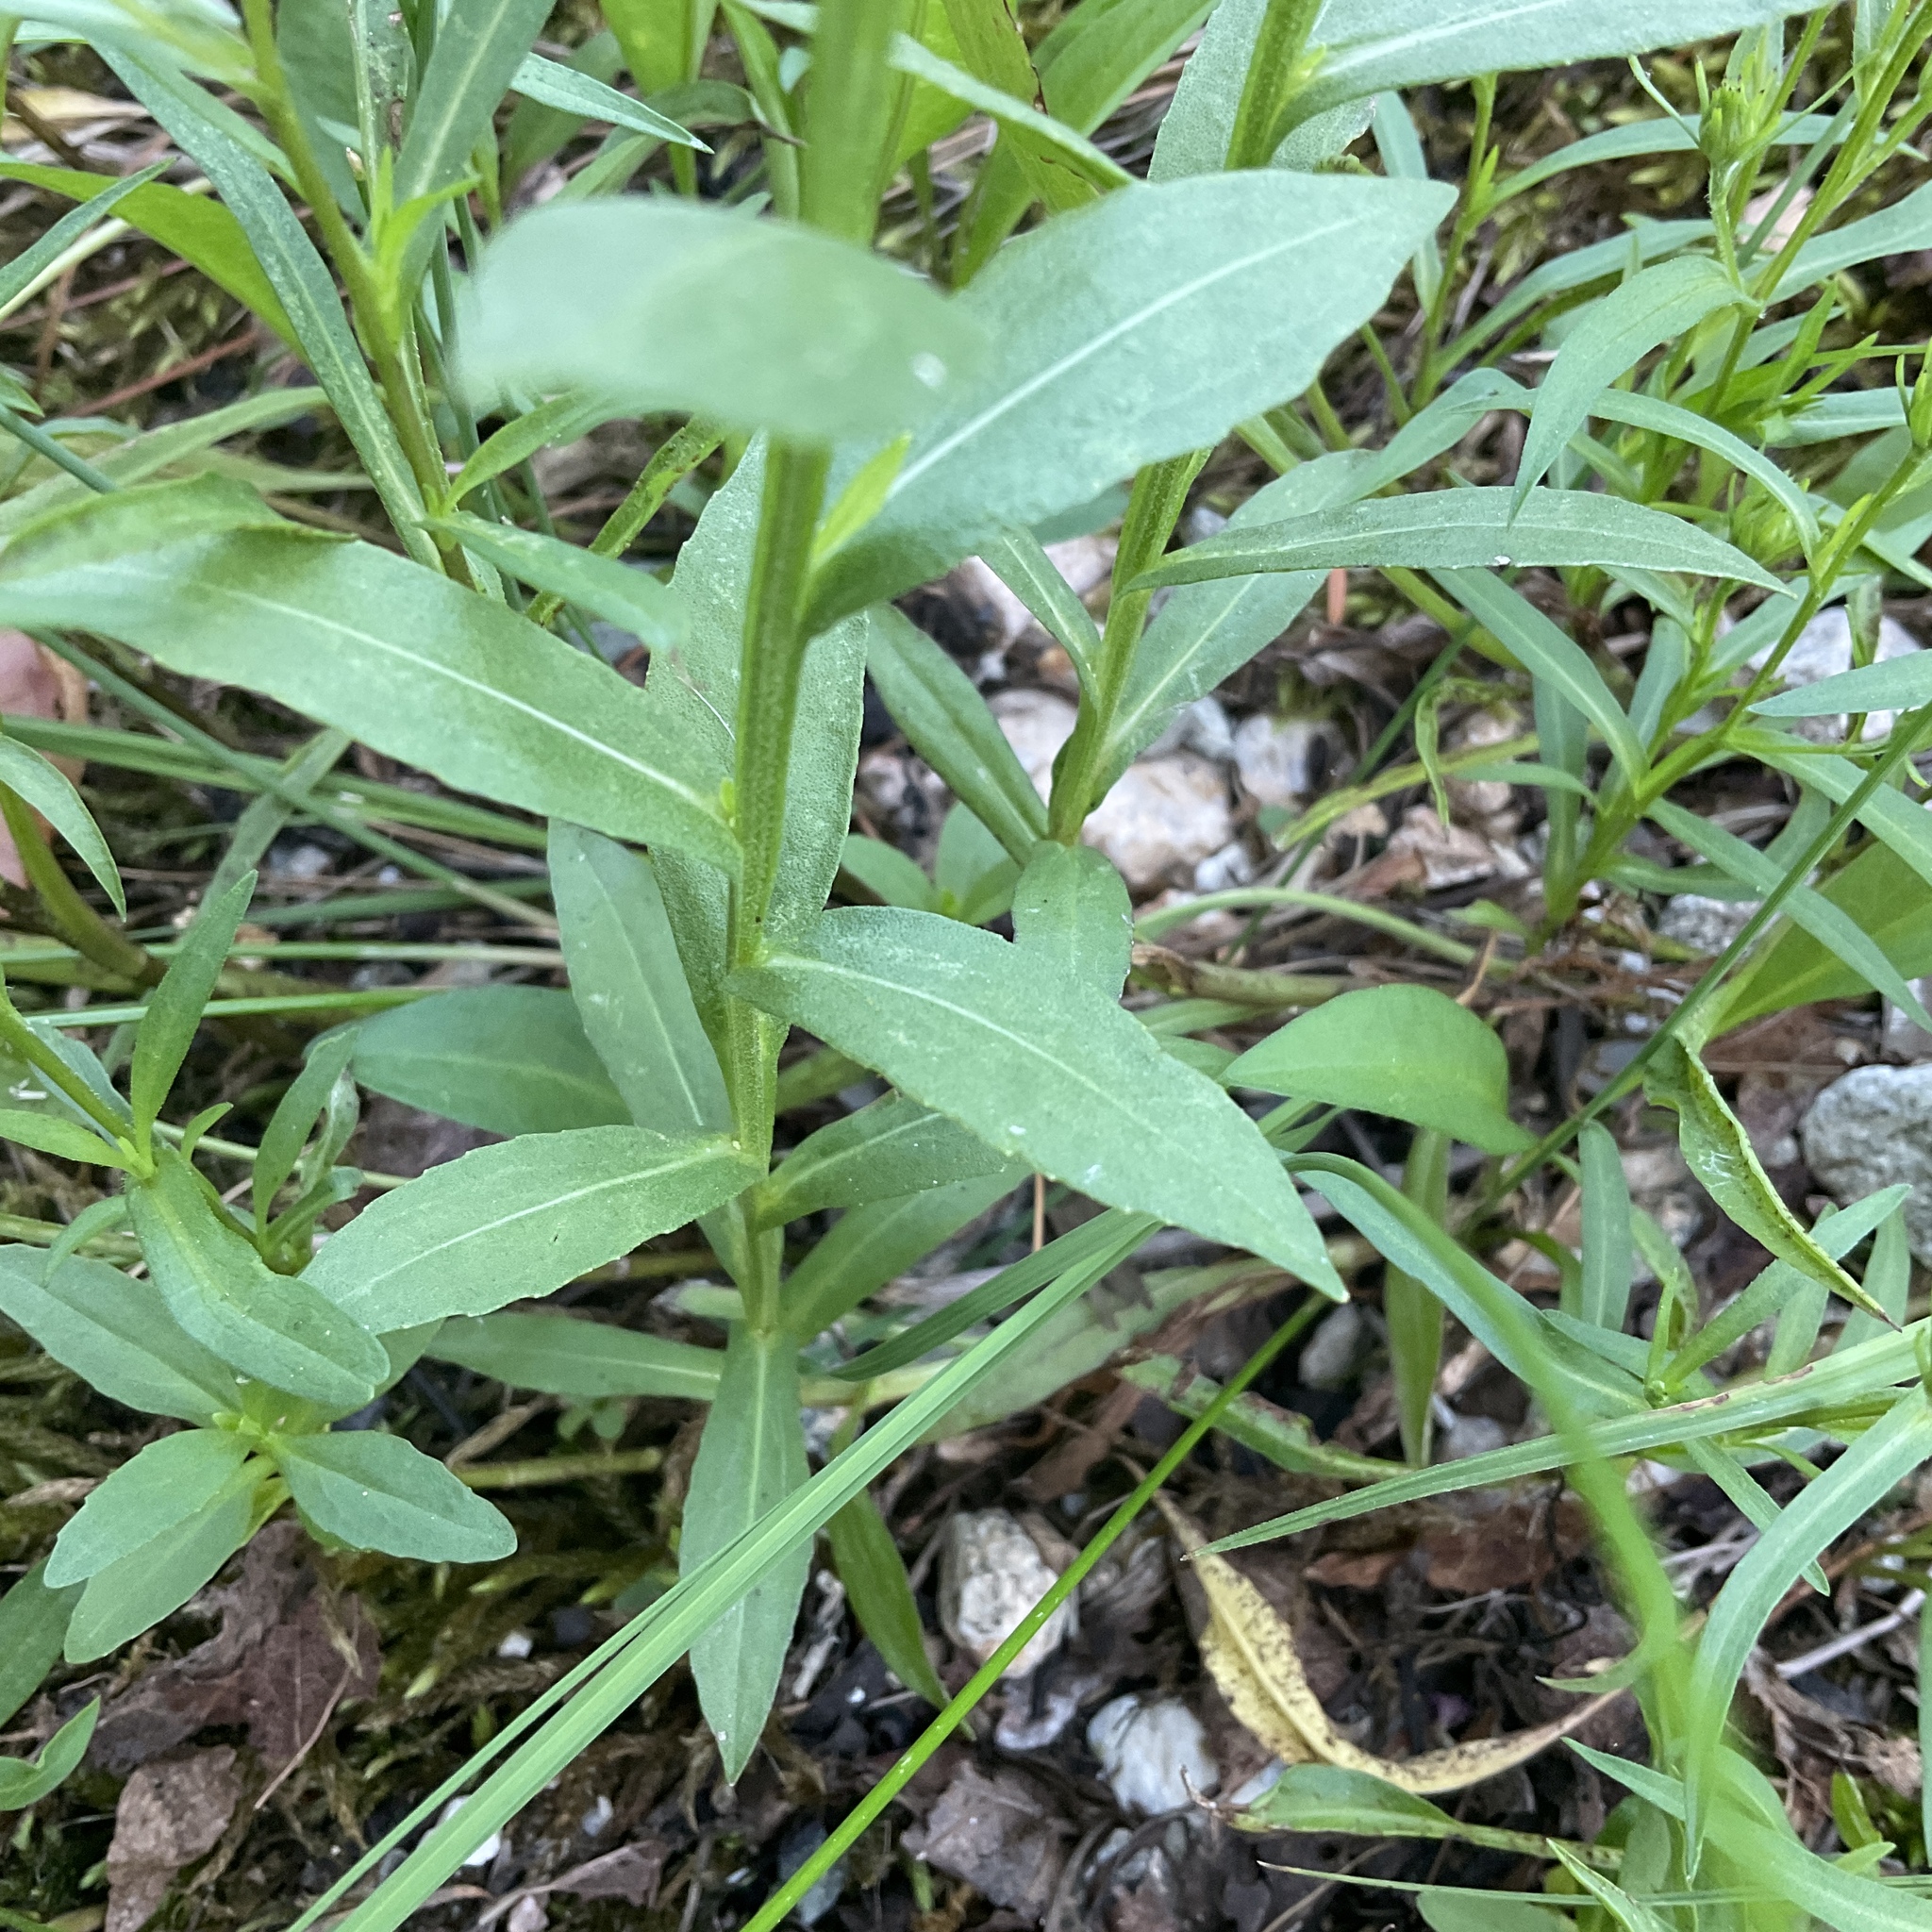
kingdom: Plantae
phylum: Tracheophyta
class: Magnoliopsida
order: Asterales
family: Asteraceae
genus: Helenium
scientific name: Helenium autumnale
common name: Sneezeweed
